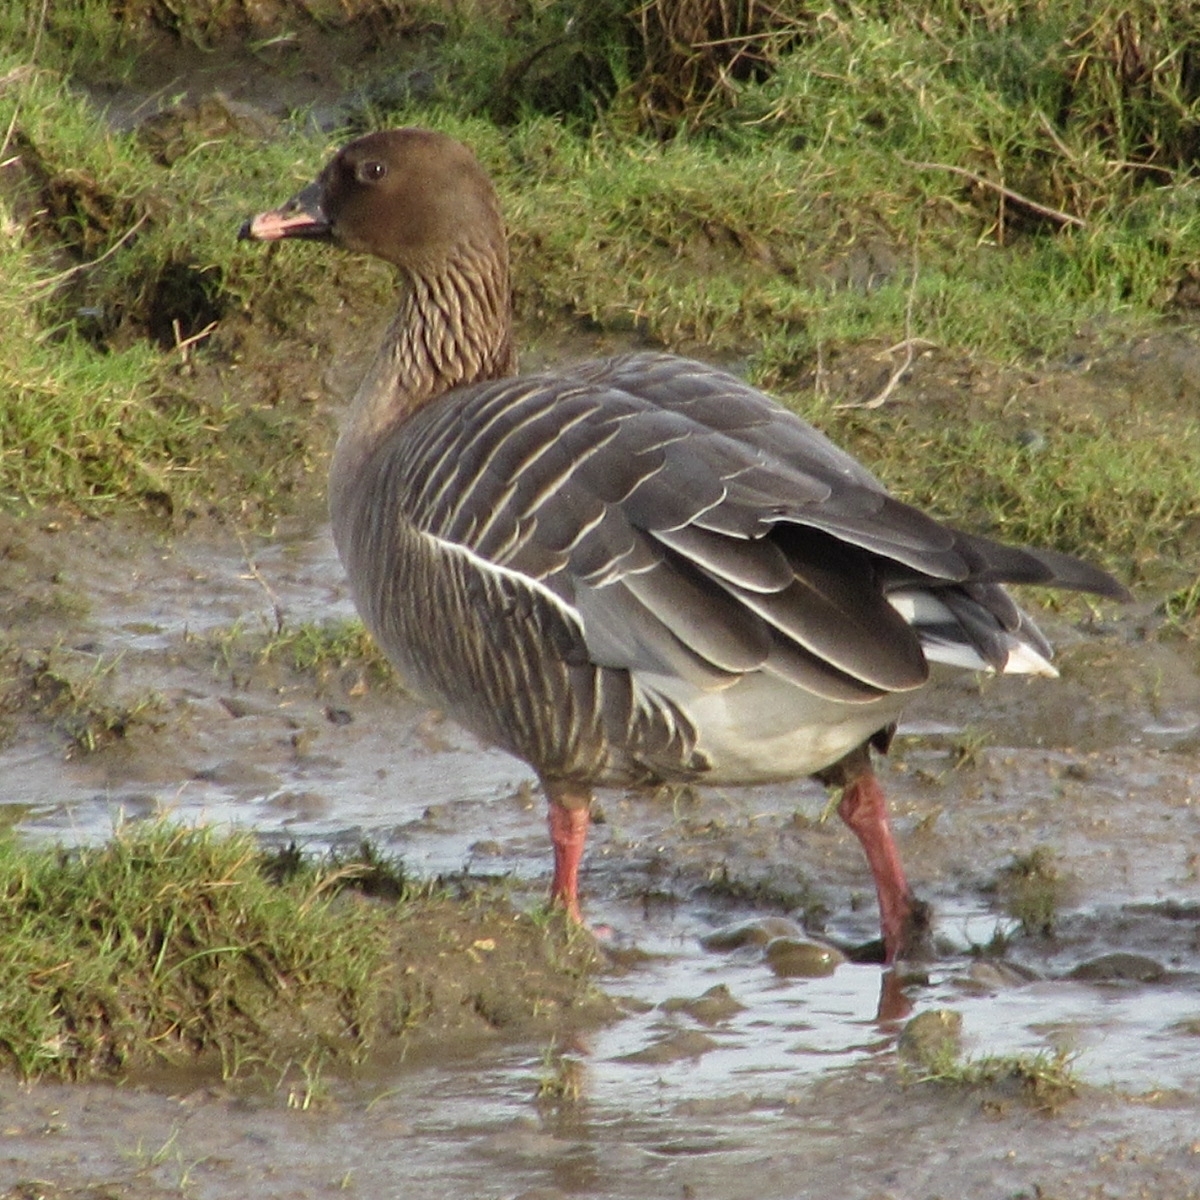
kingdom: Animalia
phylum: Chordata
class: Aves
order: Anseriformes
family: Anatidae
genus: Anser
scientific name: Anser brachyrhynchus
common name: Pink-footed goose
